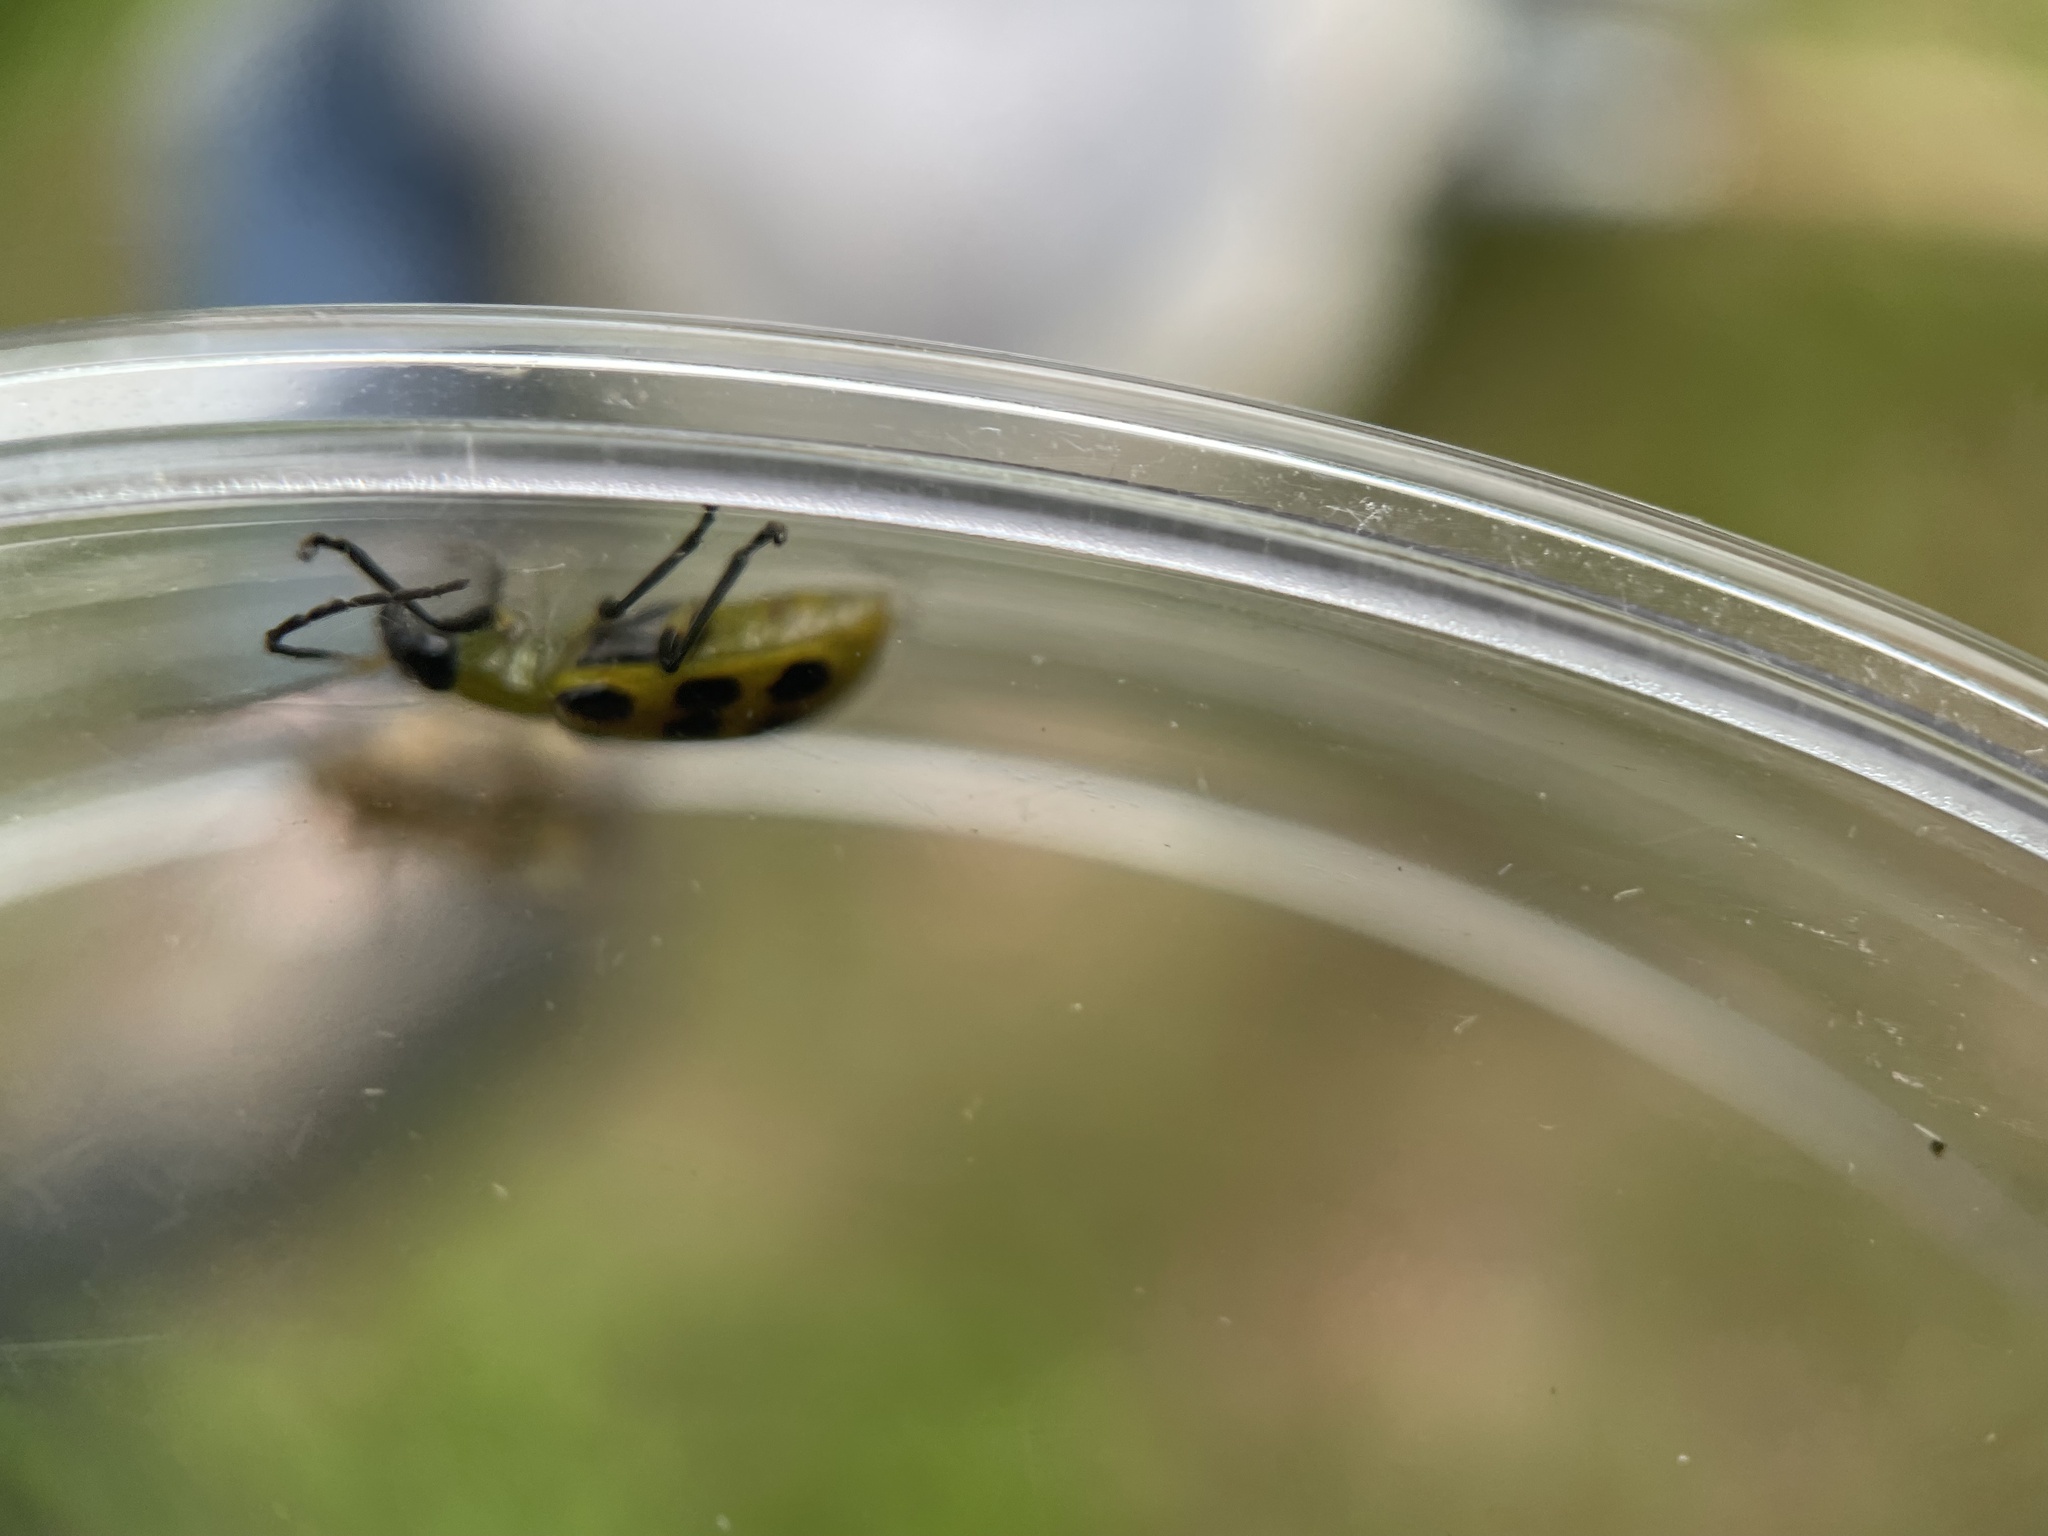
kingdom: Animalia
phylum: Arthropoda
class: Insecta
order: Coleoptera
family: Chrysomelidae
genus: Diabrotica
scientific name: Diabrotica undecimpunctata
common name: Spotted cucumber beetle
